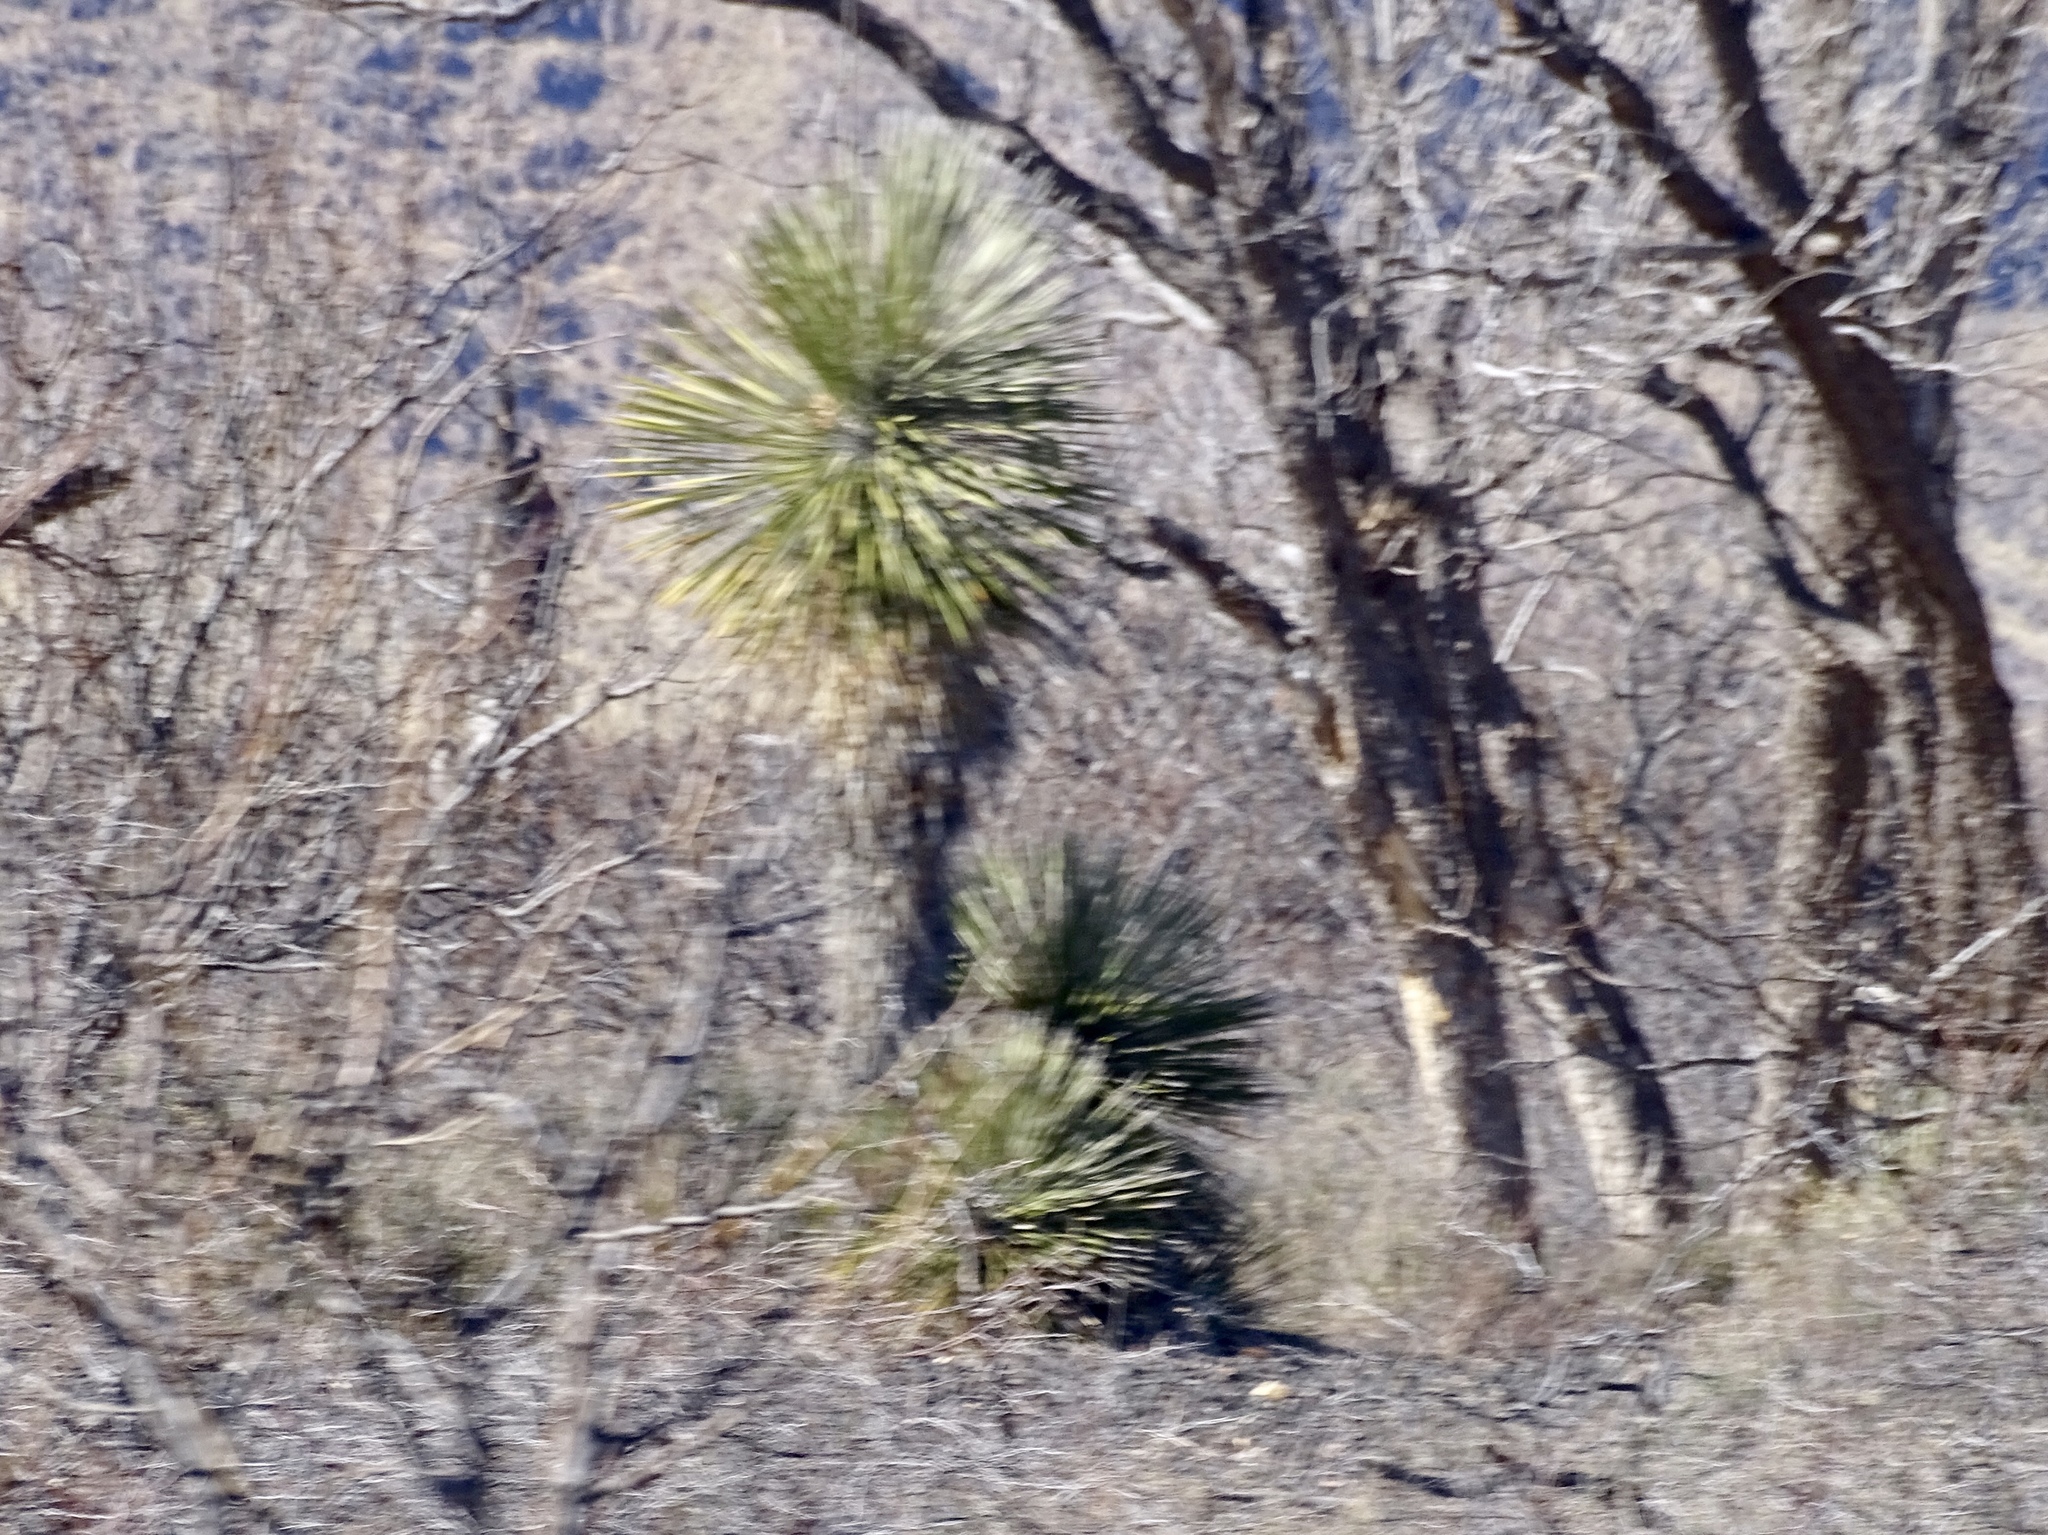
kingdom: Plantae
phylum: Tracheophyta
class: Liliopsida
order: Asparagales
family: Asparagaceae
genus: Yucca
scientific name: Yucca elata
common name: Palmella
